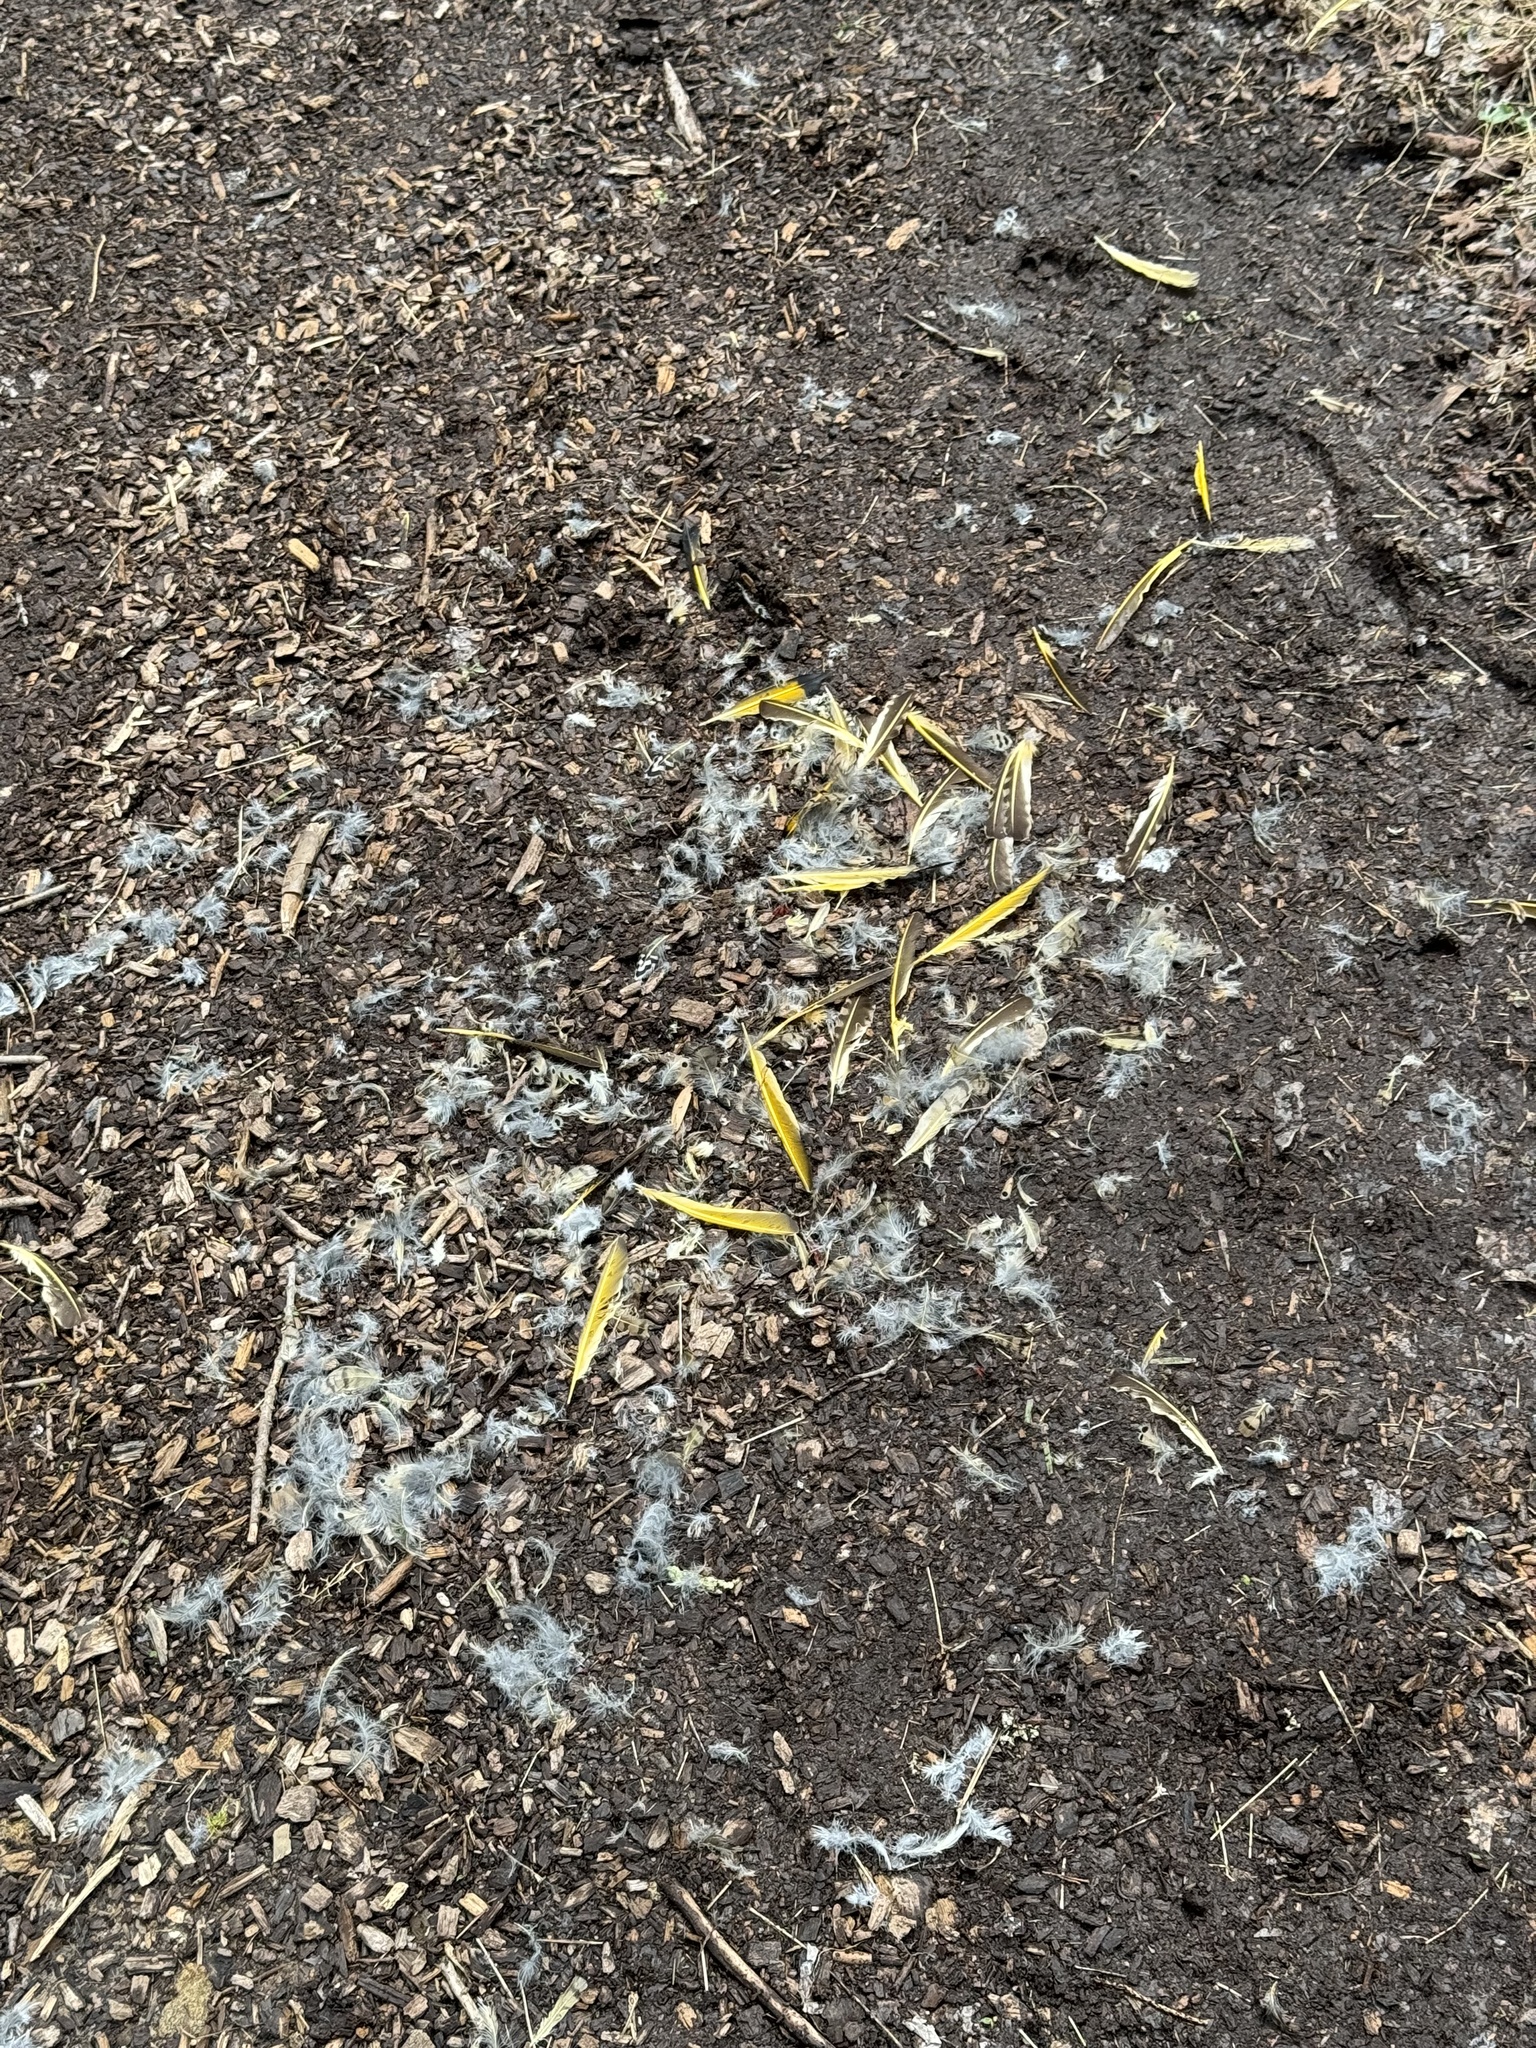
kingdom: Animalia
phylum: Chordata
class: Aves
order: Piciformes
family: Picidae
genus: Colaptes
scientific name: Colaptes auratus
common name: Northern flicker
